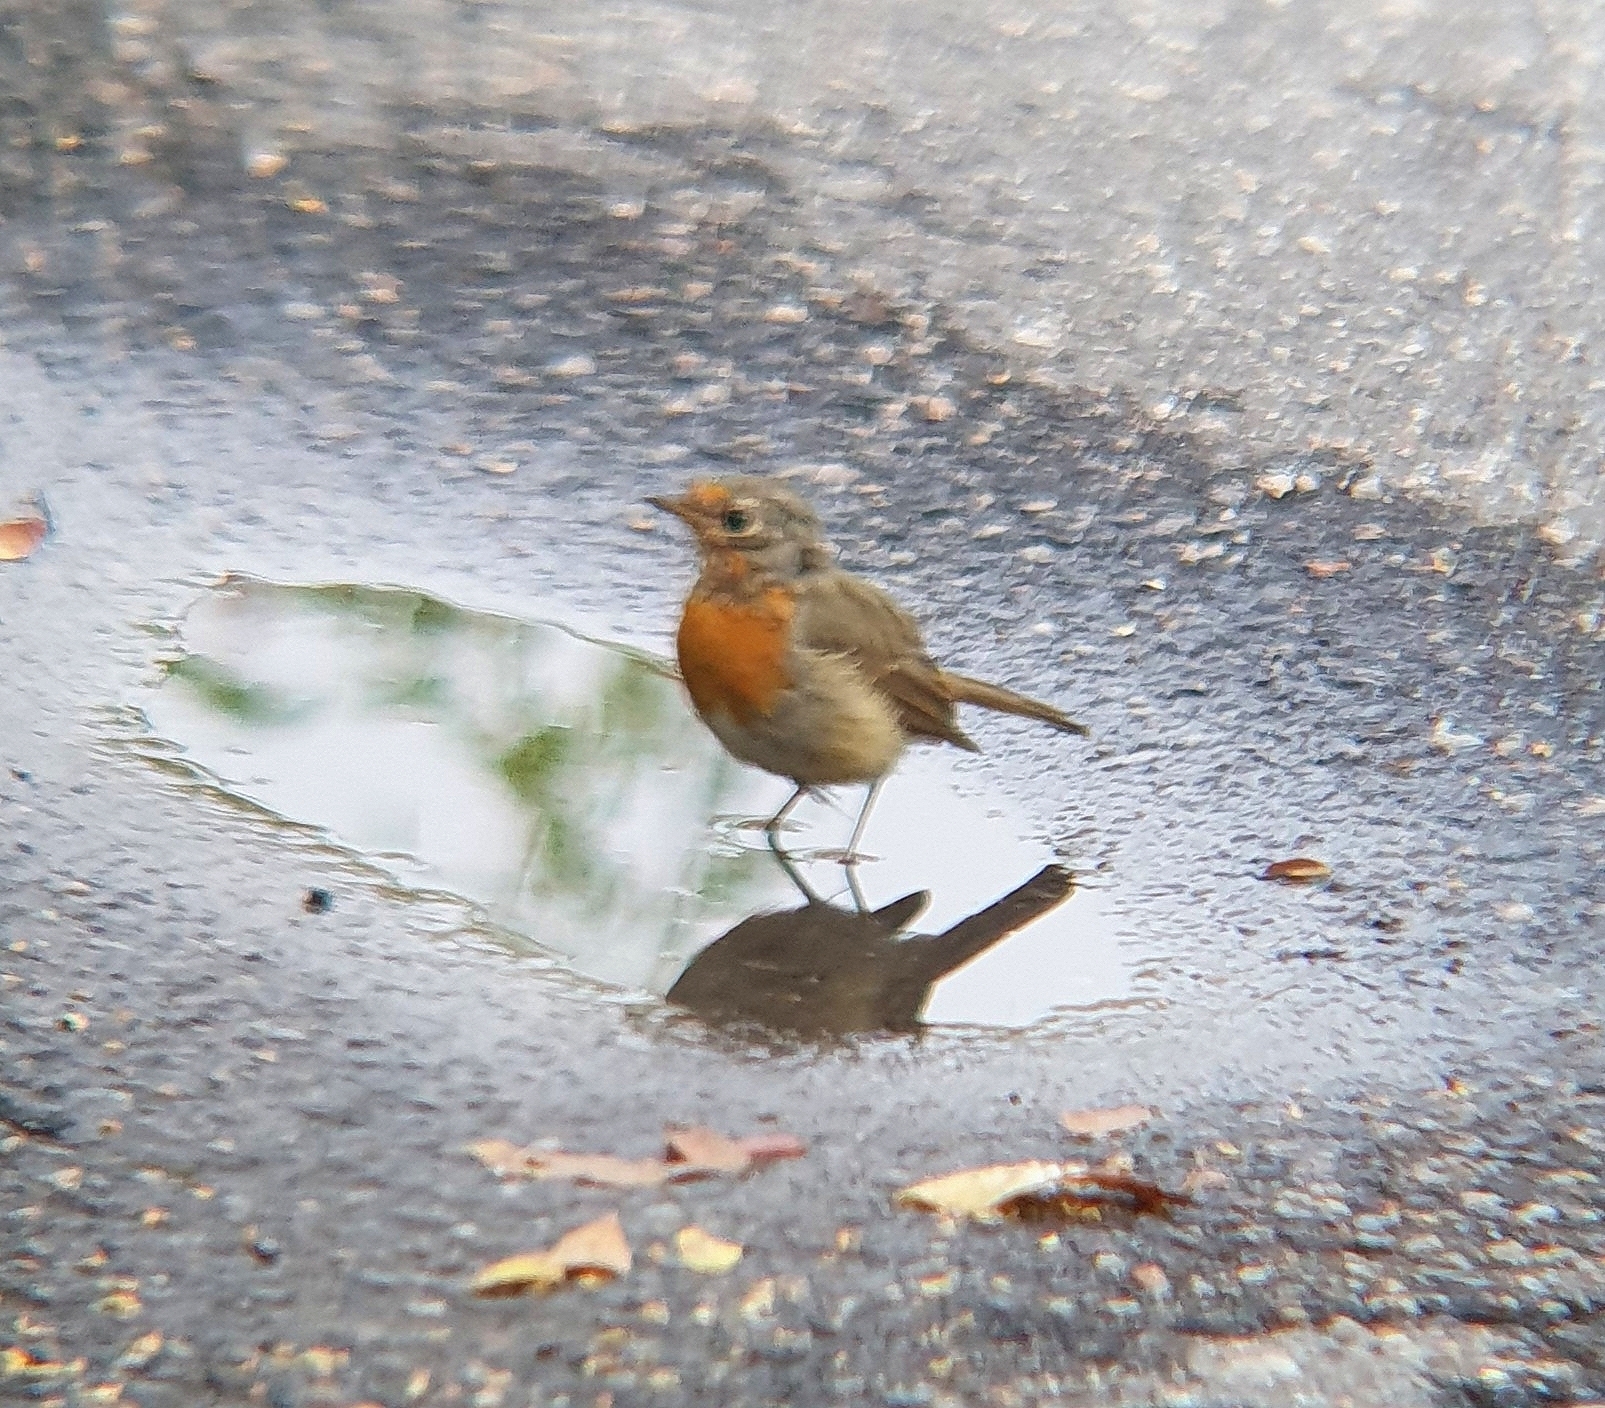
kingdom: Animalia
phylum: Chordata
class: Aves
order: Passeriformes
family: Muscicapidae
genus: Erithacus
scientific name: Erithacus rubecula
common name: European robin
